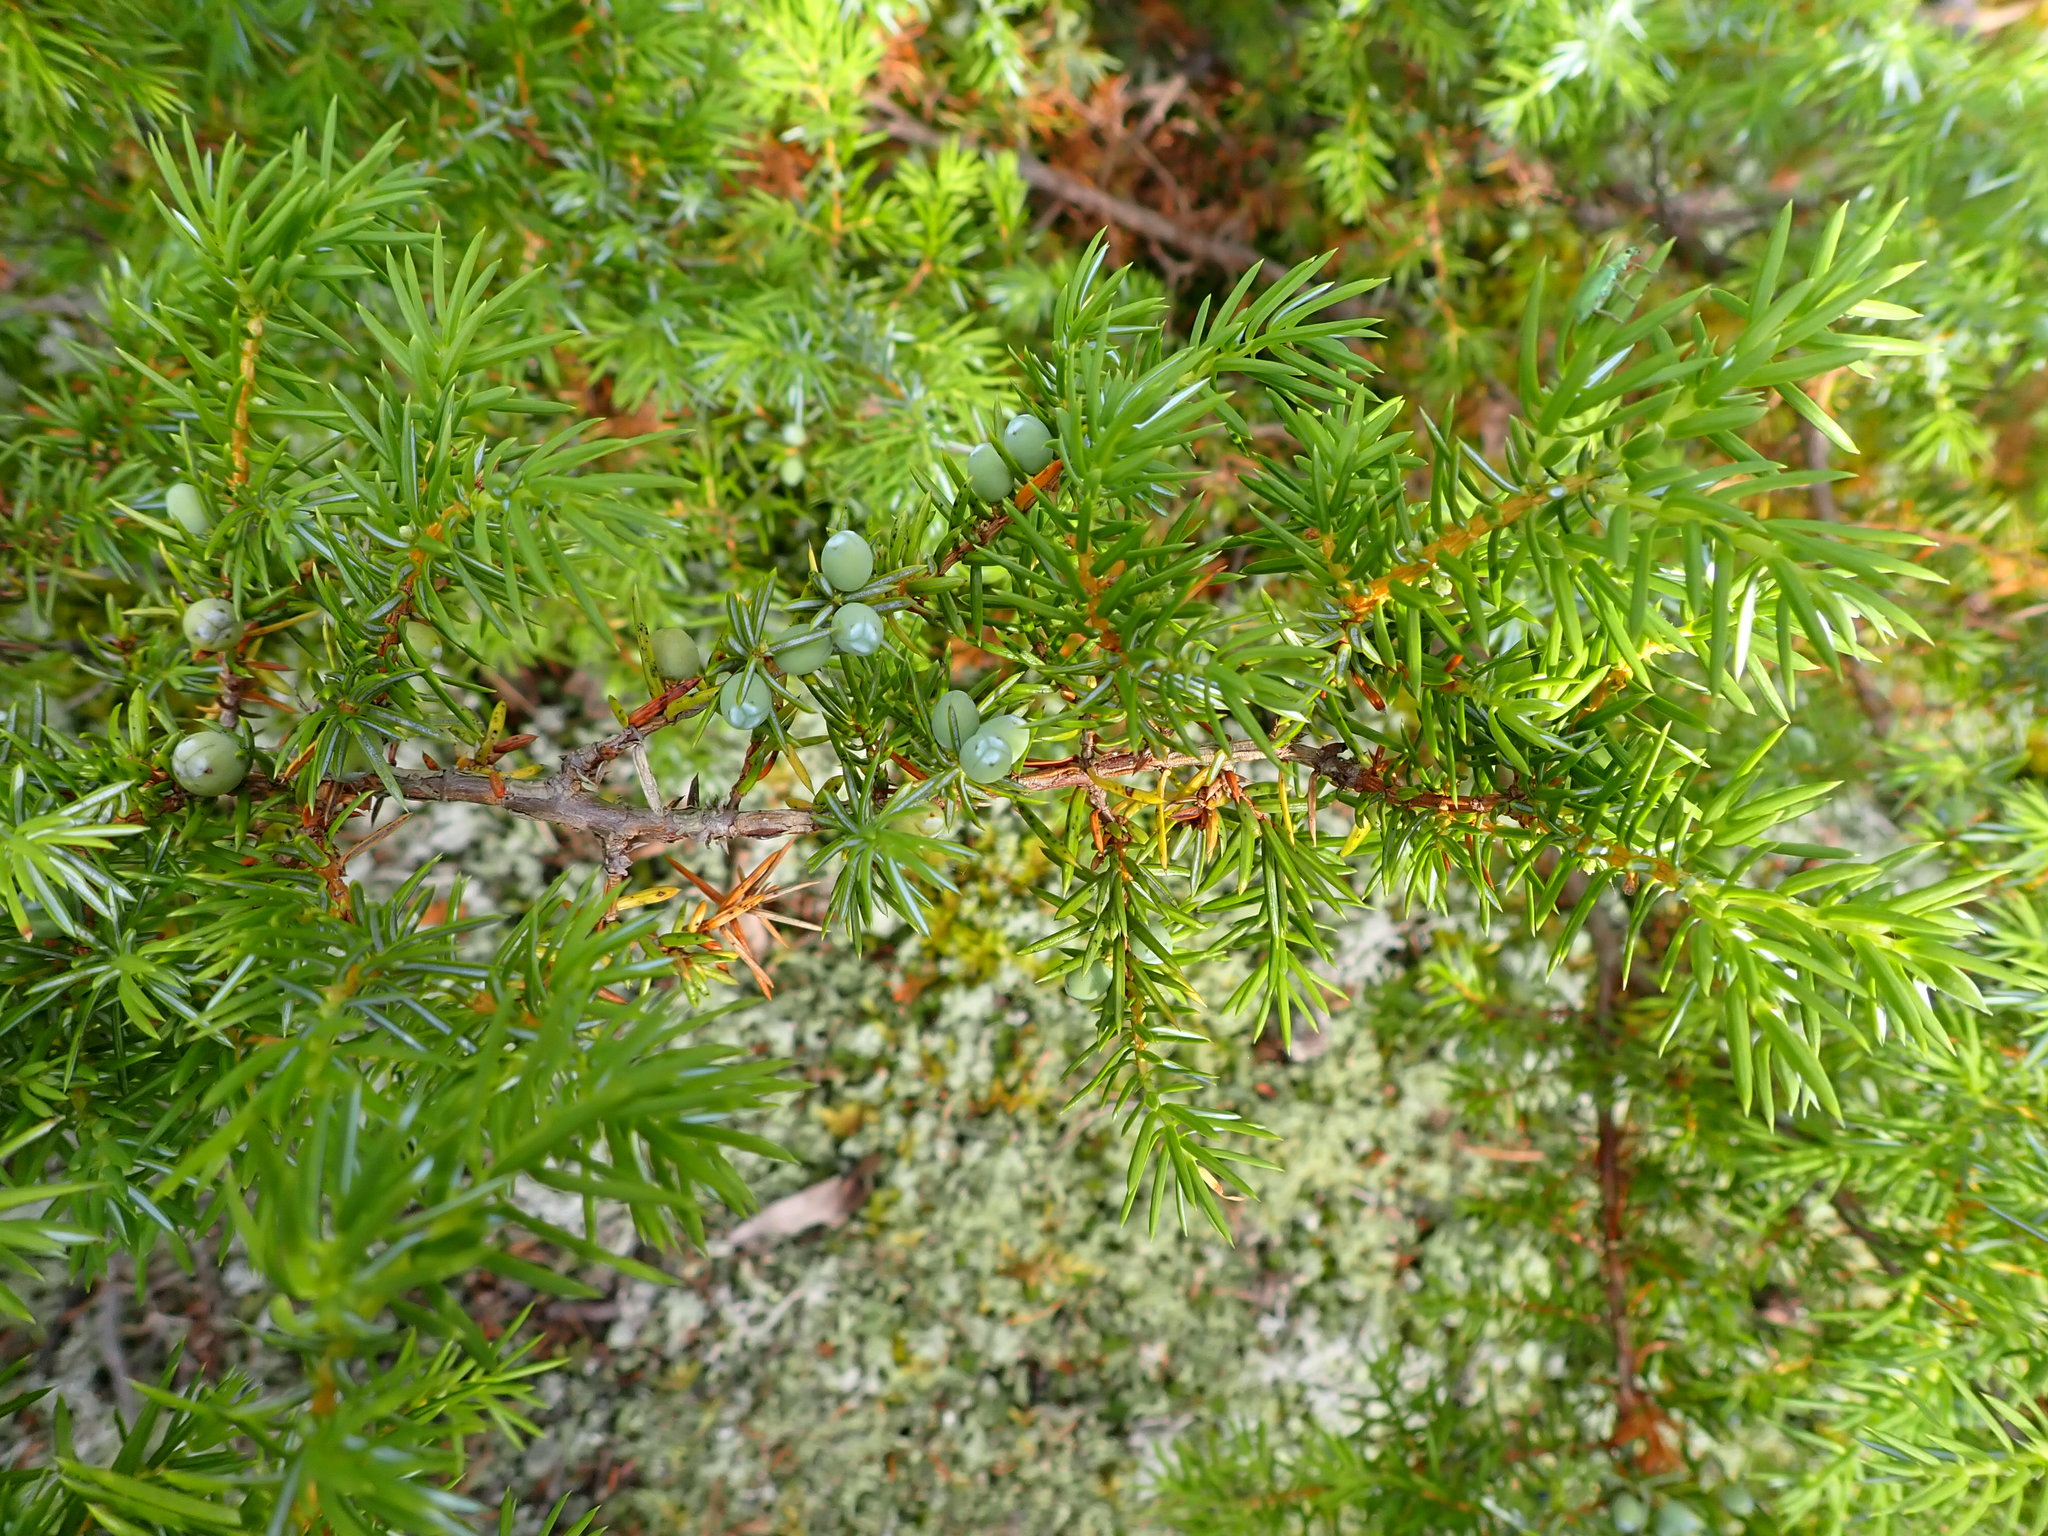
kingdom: Plantae
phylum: Tracheophyta
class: Pinopsida
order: Pinales
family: Cupressaceae
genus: Juniperus
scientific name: Juniperus communis
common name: Common juniper
